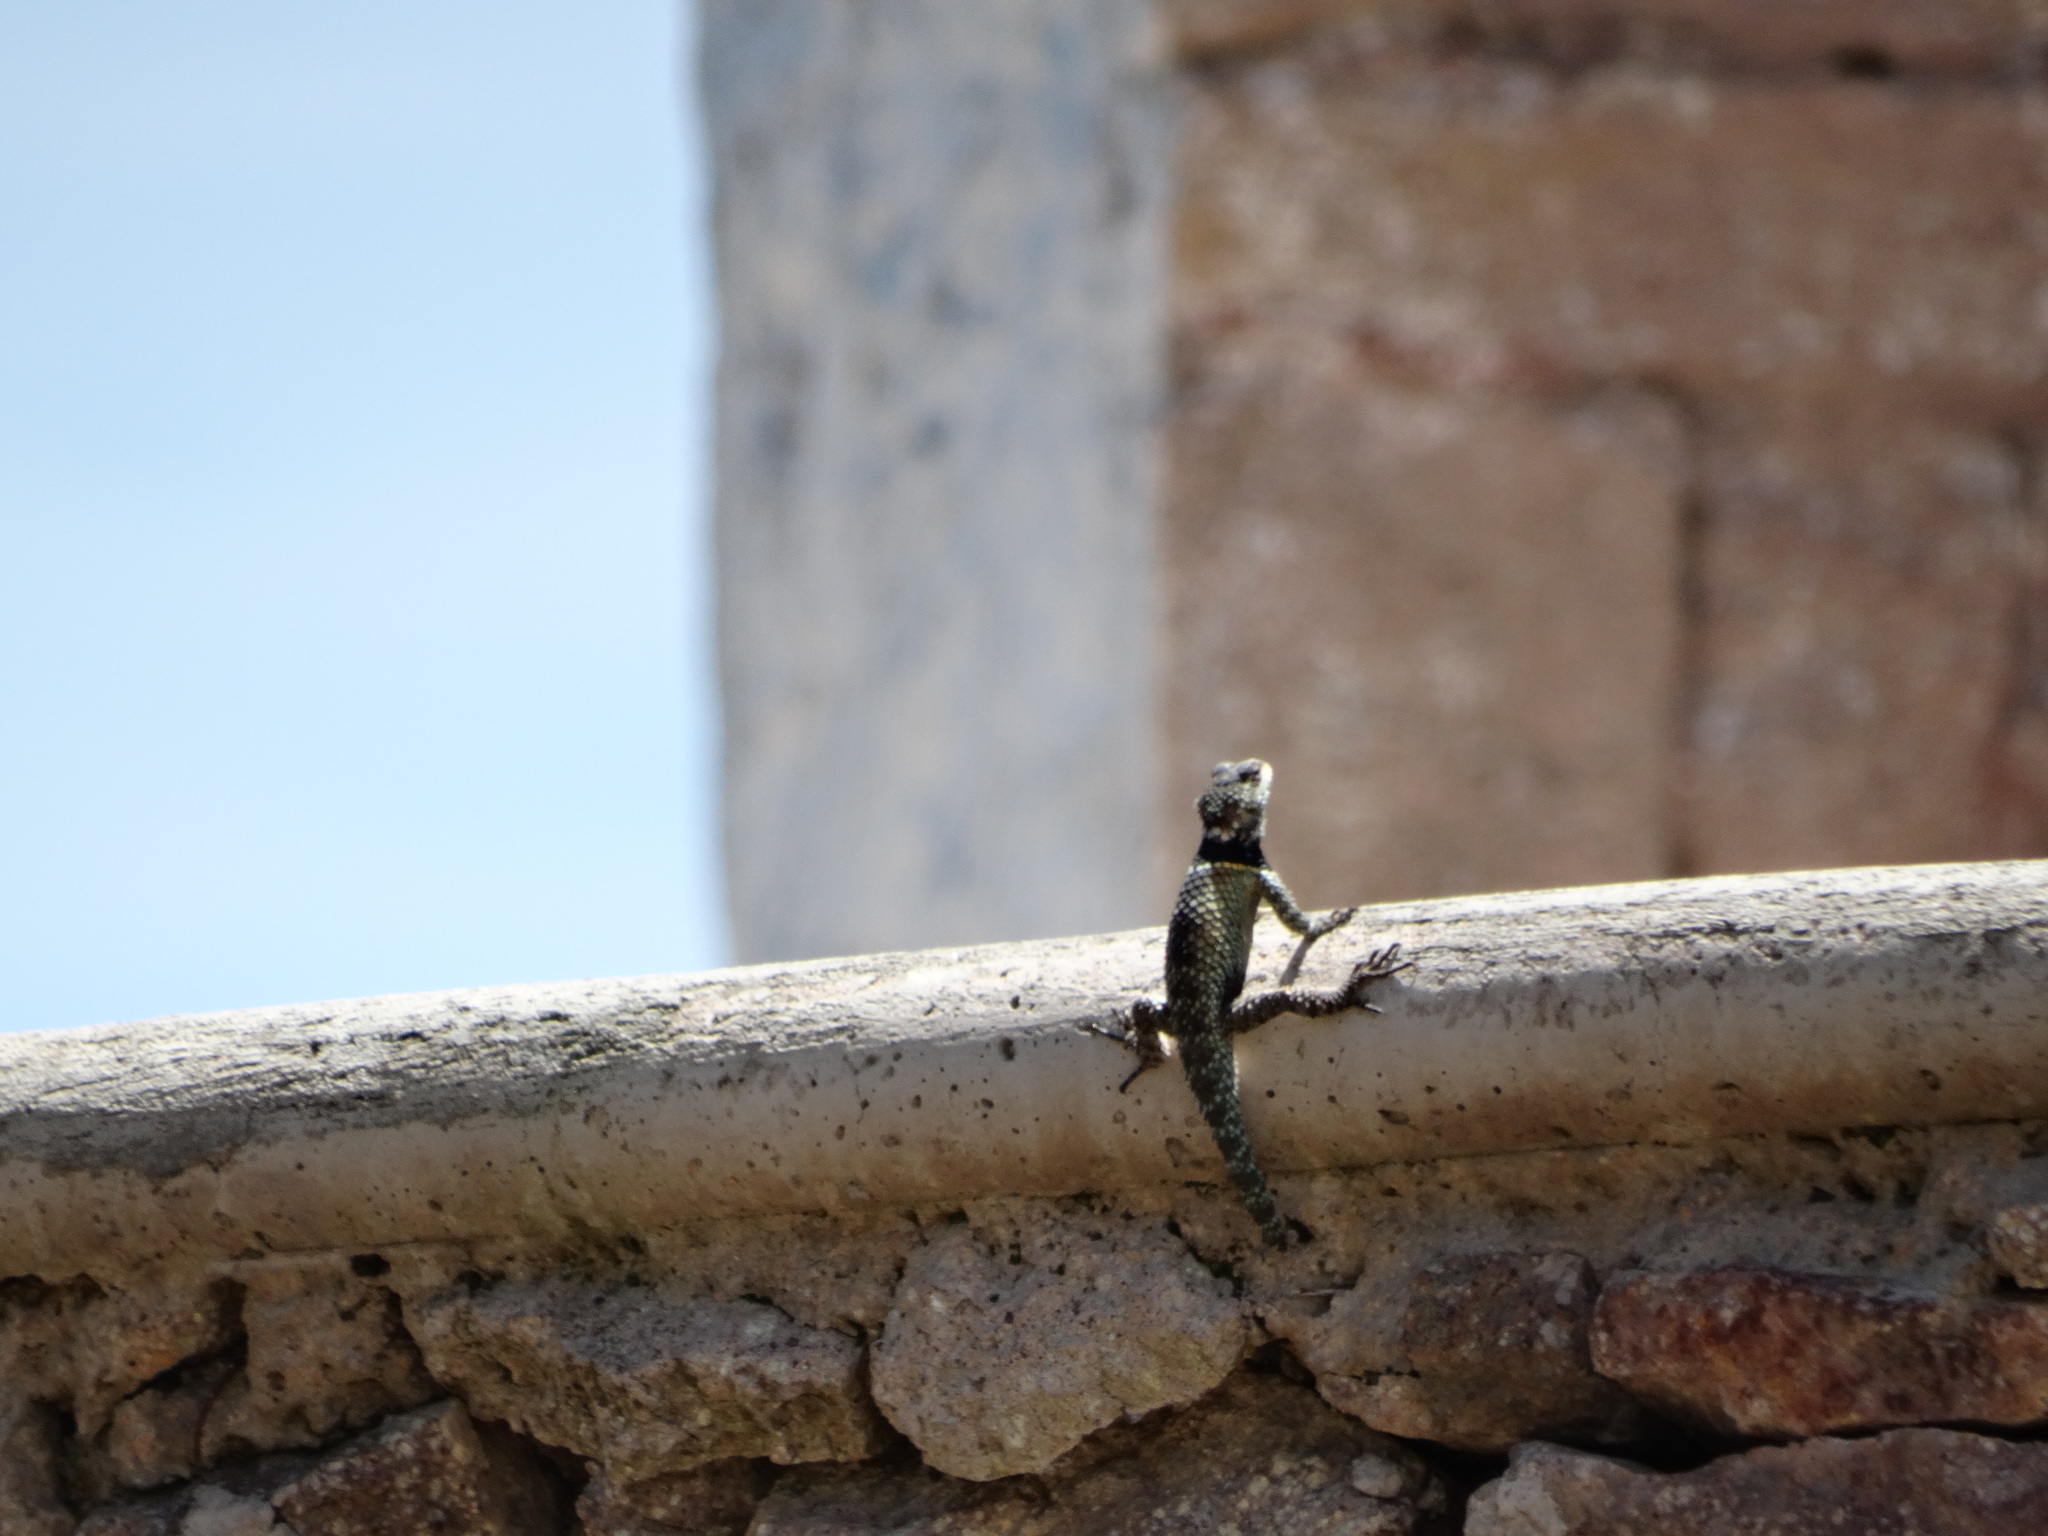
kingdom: Animalia
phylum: Chordata
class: Squamata
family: Phrynosomatidae
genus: Sceloporus
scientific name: Sceloporus torquatus
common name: Central plateau torquate lizard [melanogaster]
